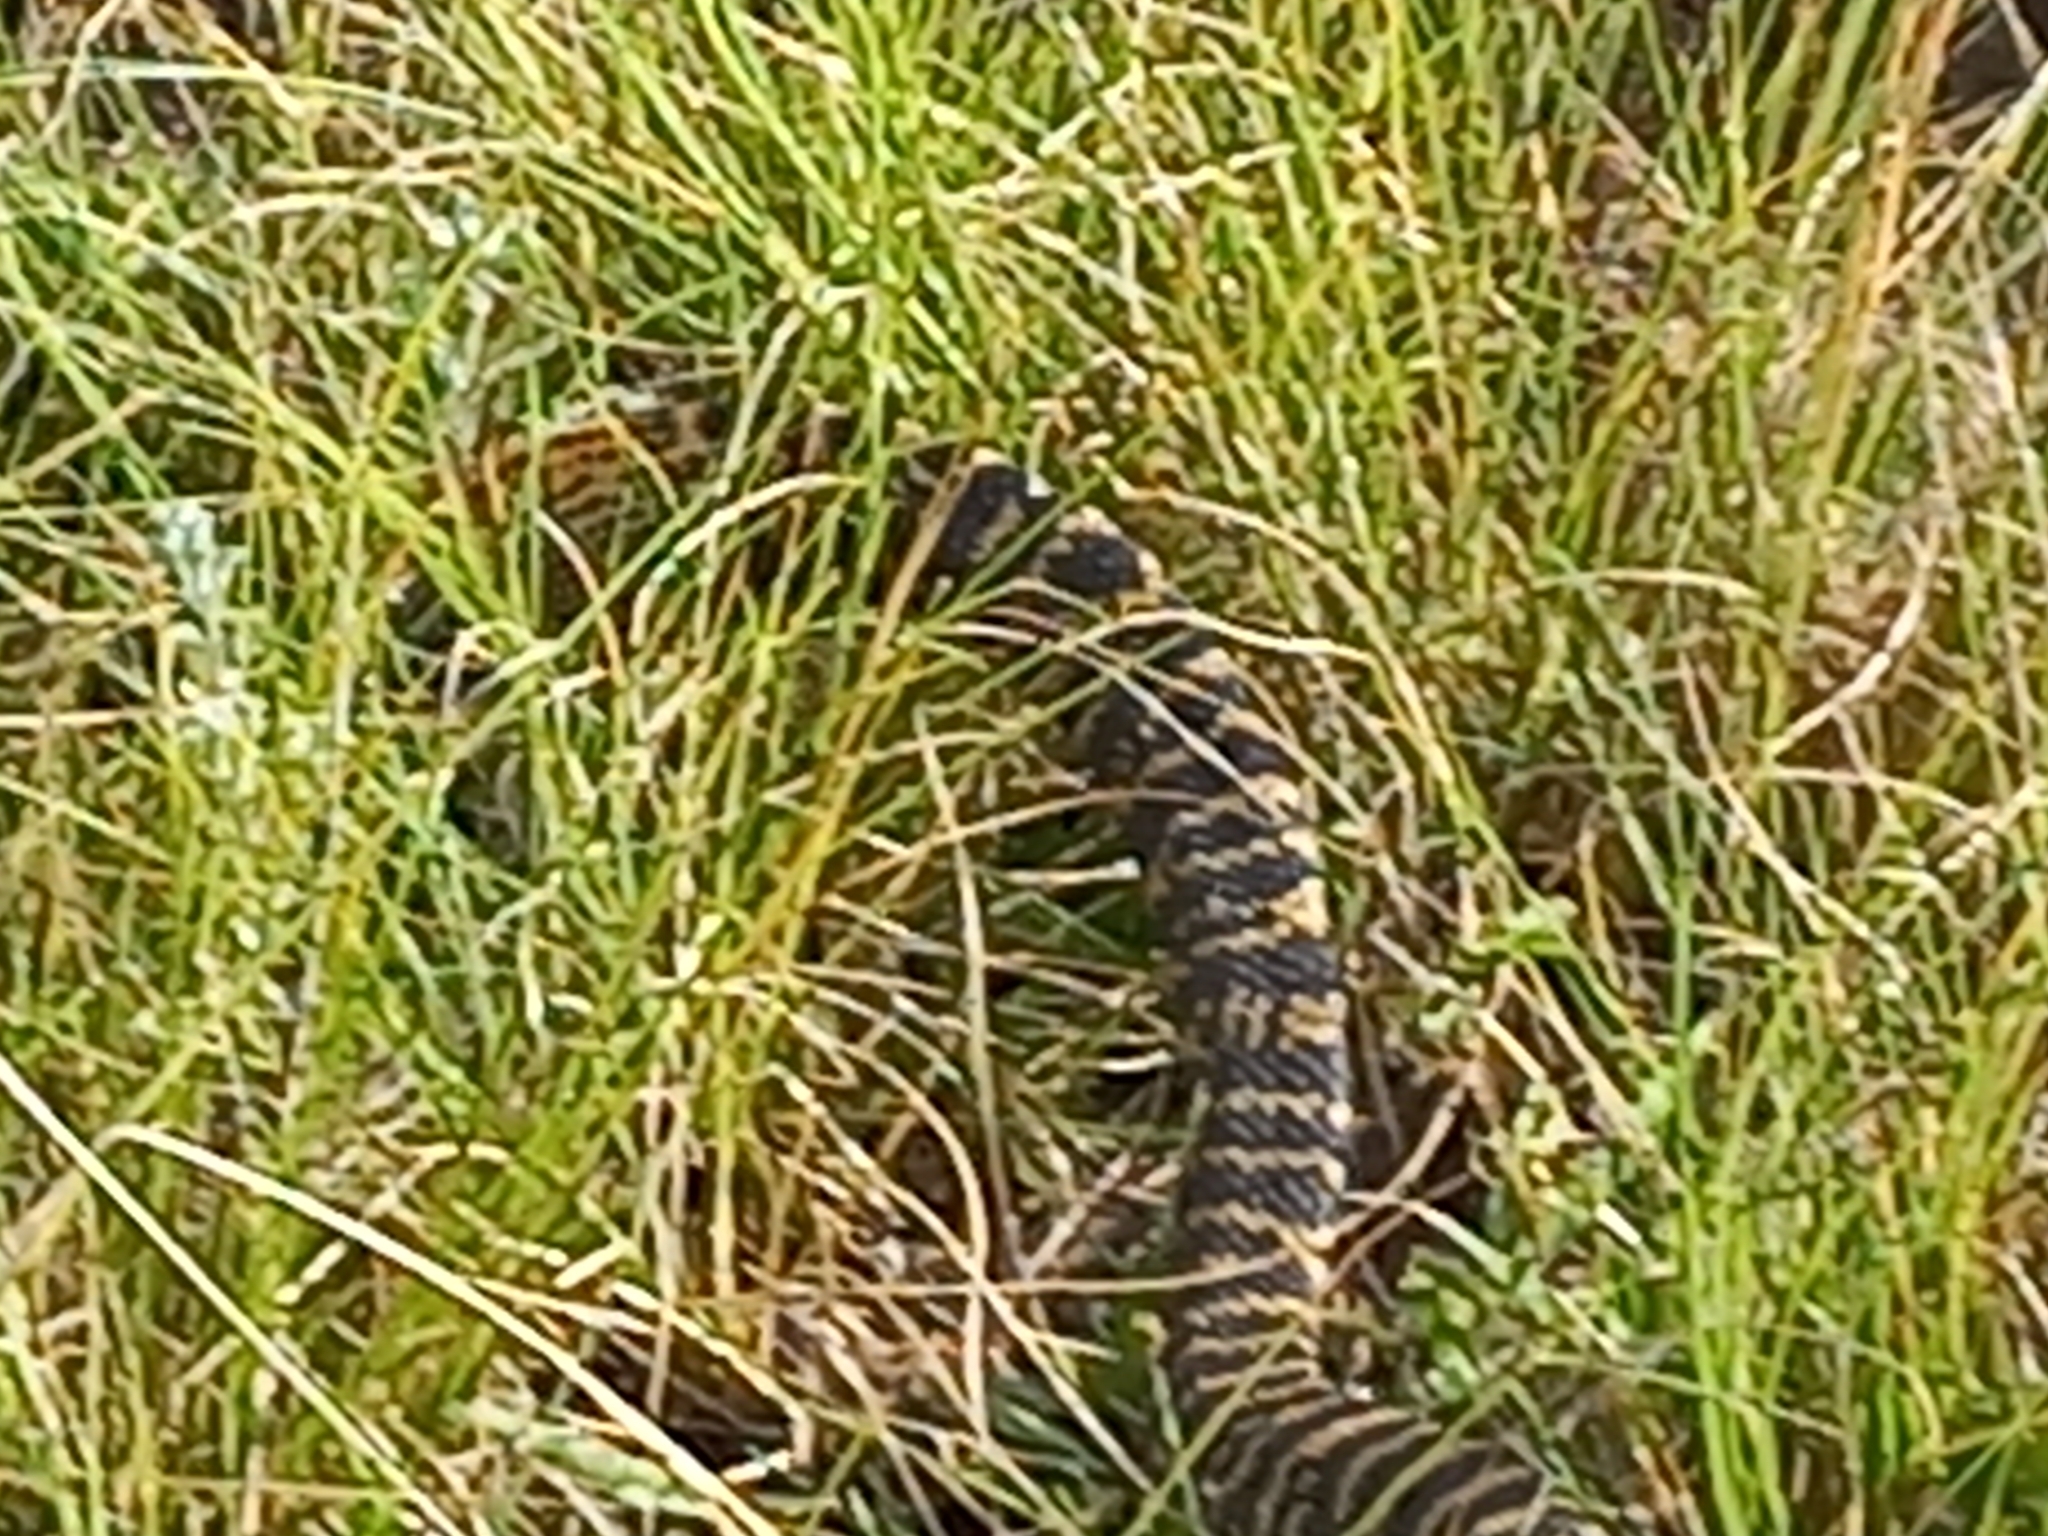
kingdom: Animalia
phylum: Chordata
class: Squamata
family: Elapidae
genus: Hemachatus
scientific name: Hemachatus haemachatus
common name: Ring-necked spitting cobra
